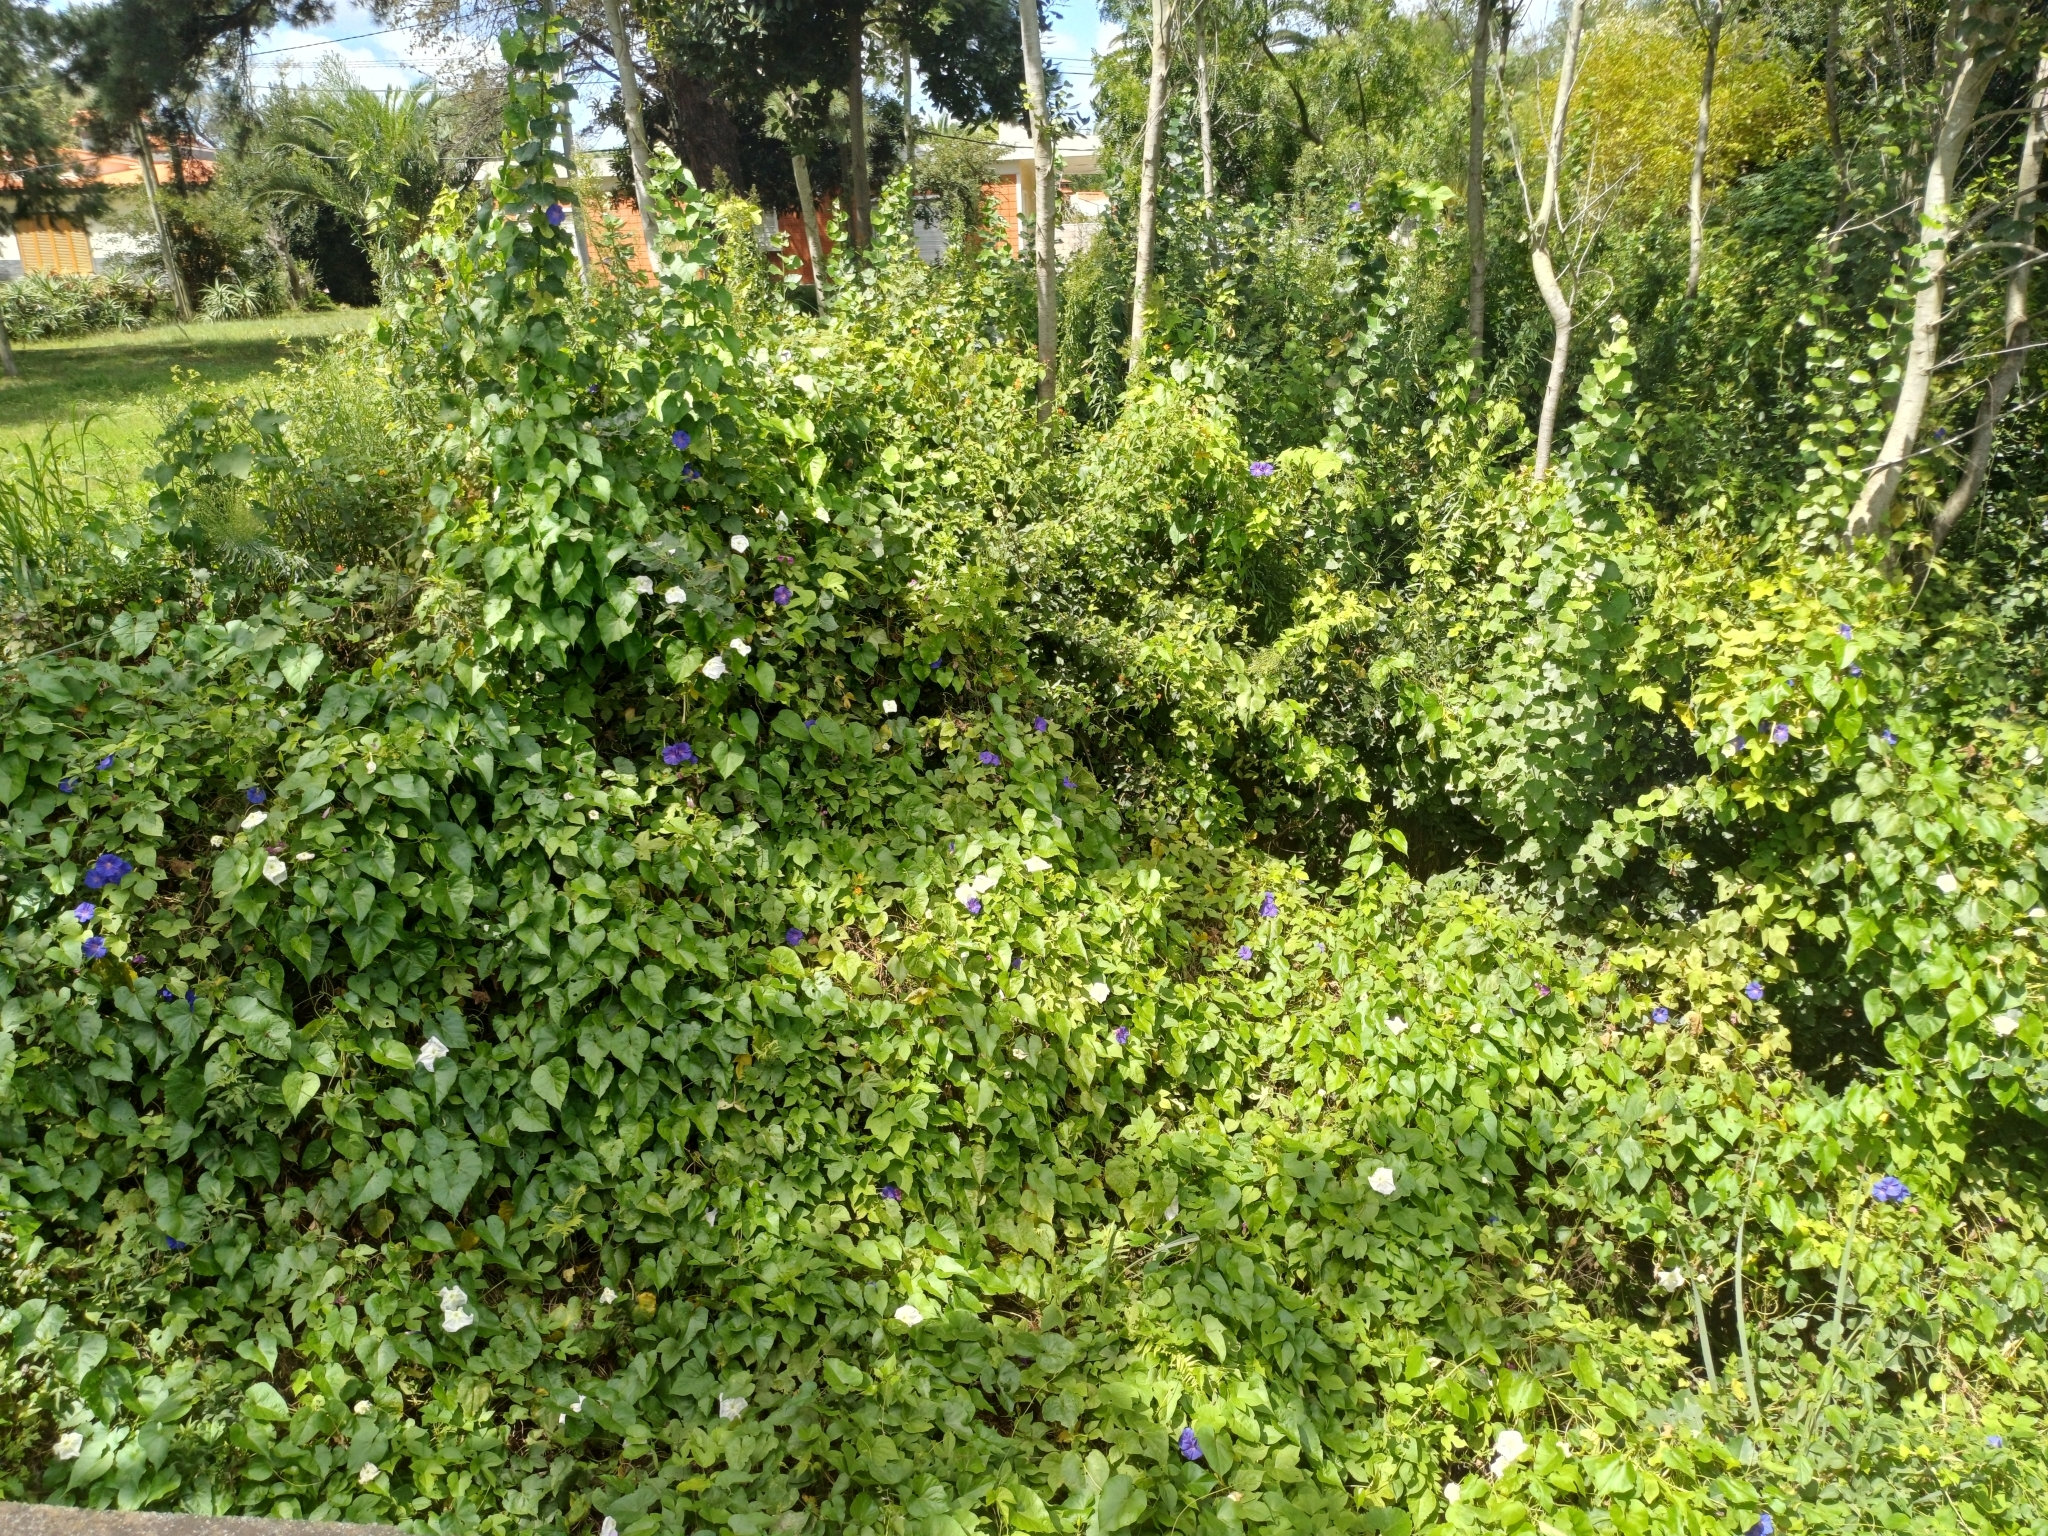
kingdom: Plantae
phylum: Tracheophyta
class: Magnoliopsida
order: Solanales
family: Convolvulaceae
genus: Ipomoea
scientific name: Ipomoea alba
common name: Moonflower
